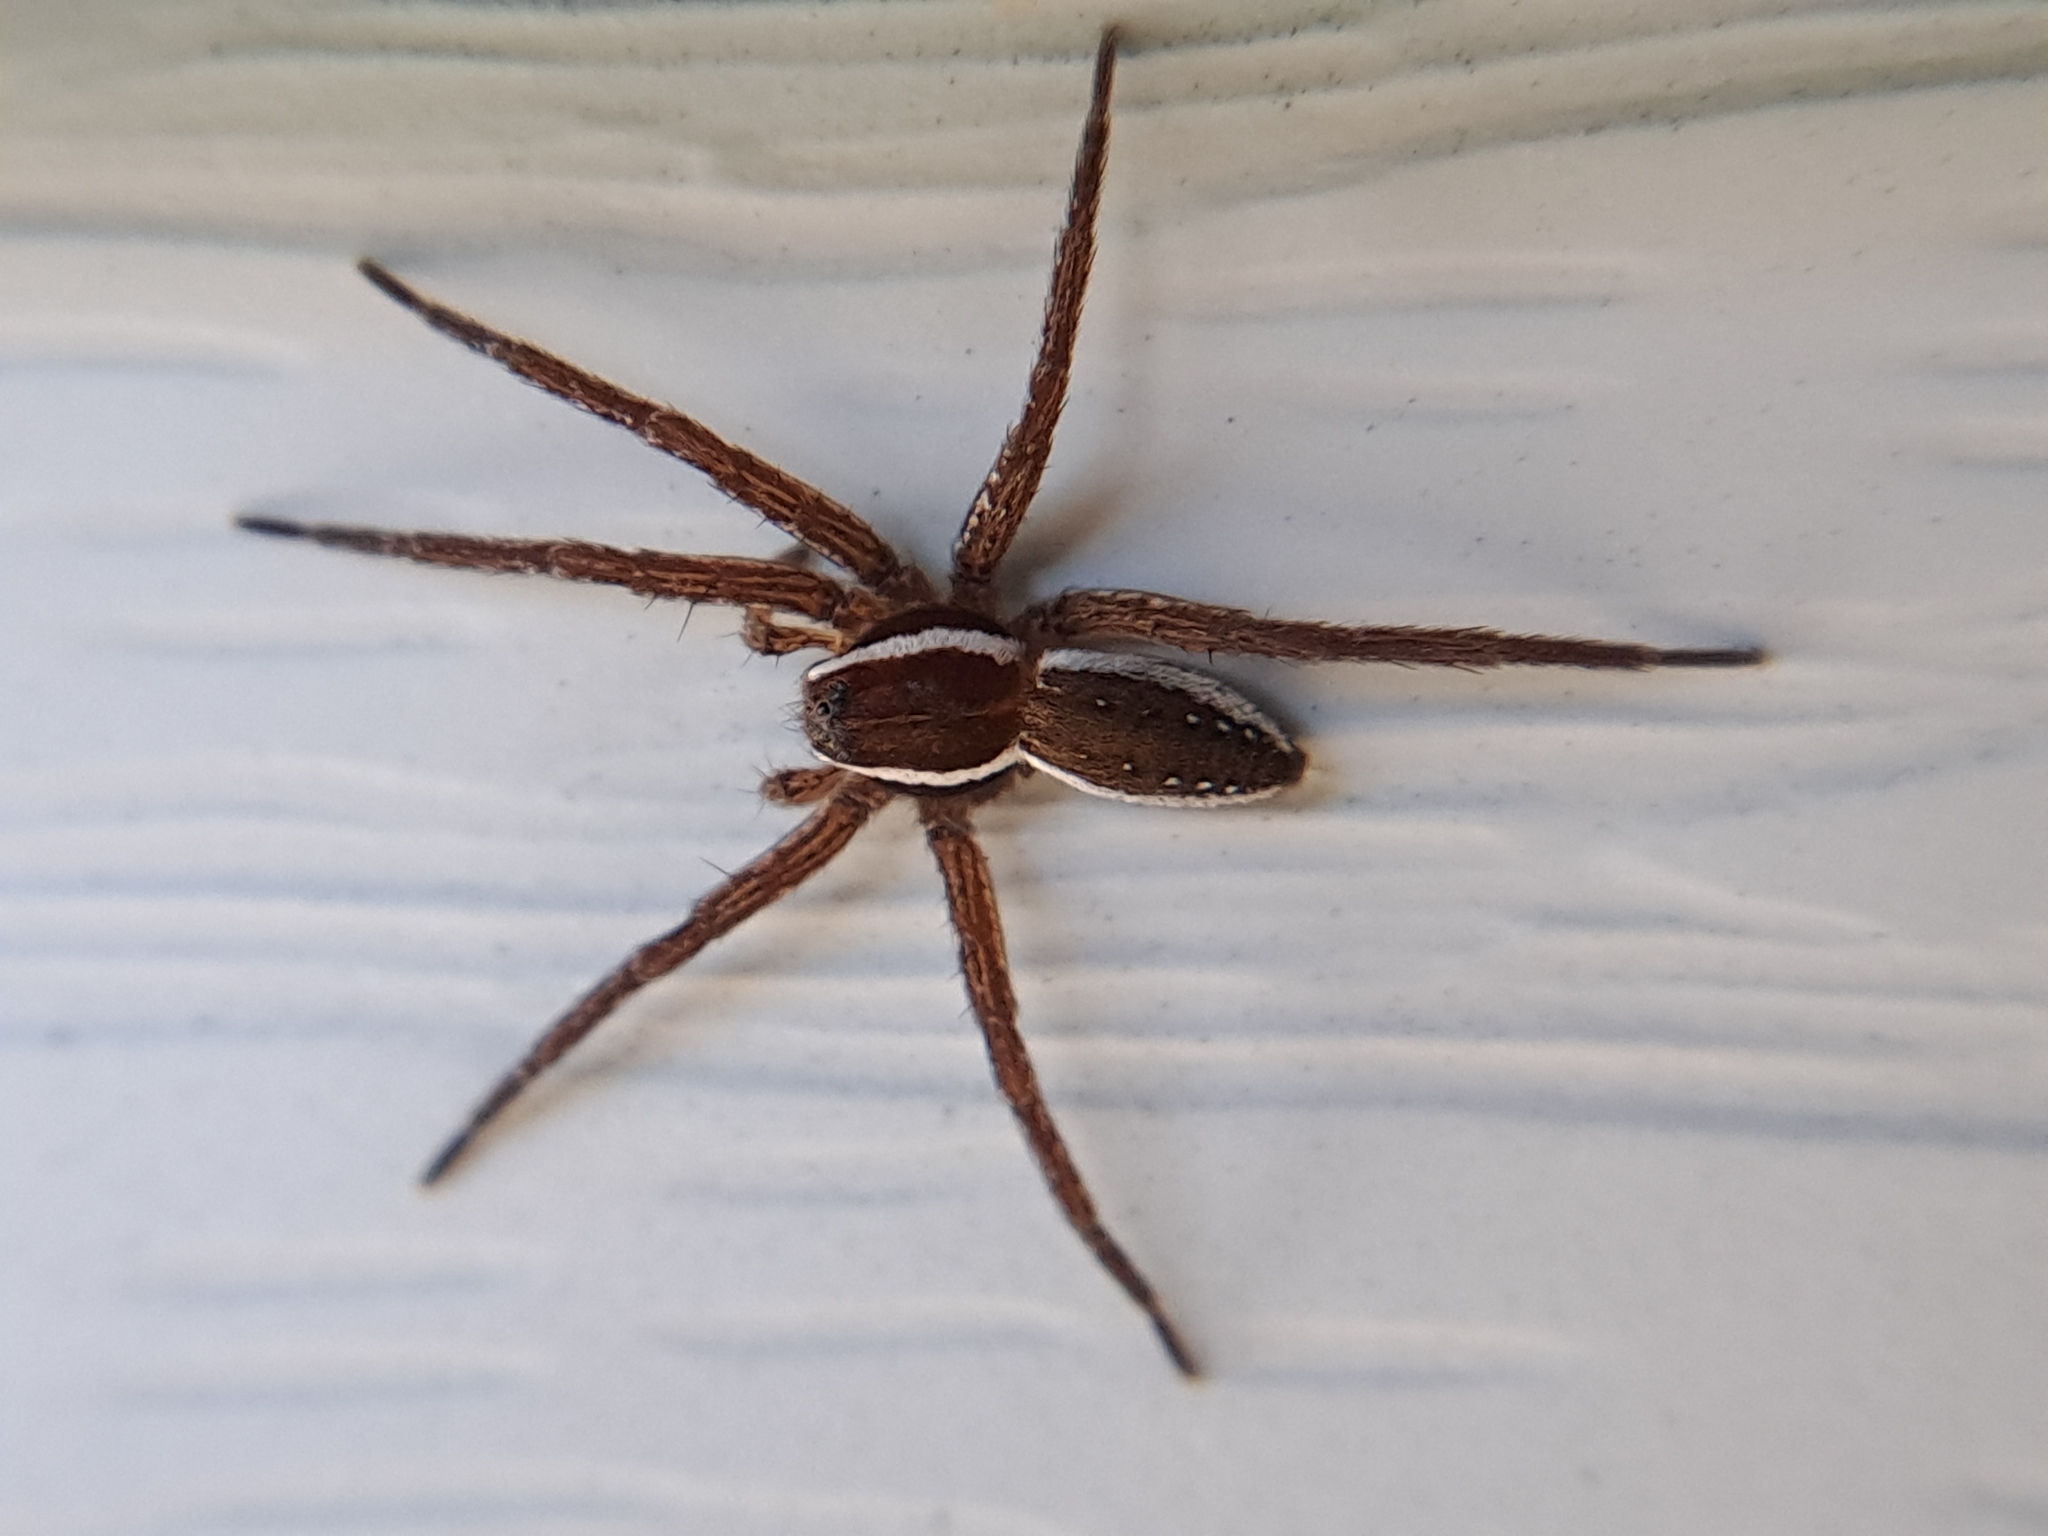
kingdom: Animalia
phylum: Arthropoda
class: Arachnida
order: Araneae
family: Pisauridae
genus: Dolomedes
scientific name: Dolomedes triton
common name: Six-spotted fishing spider
